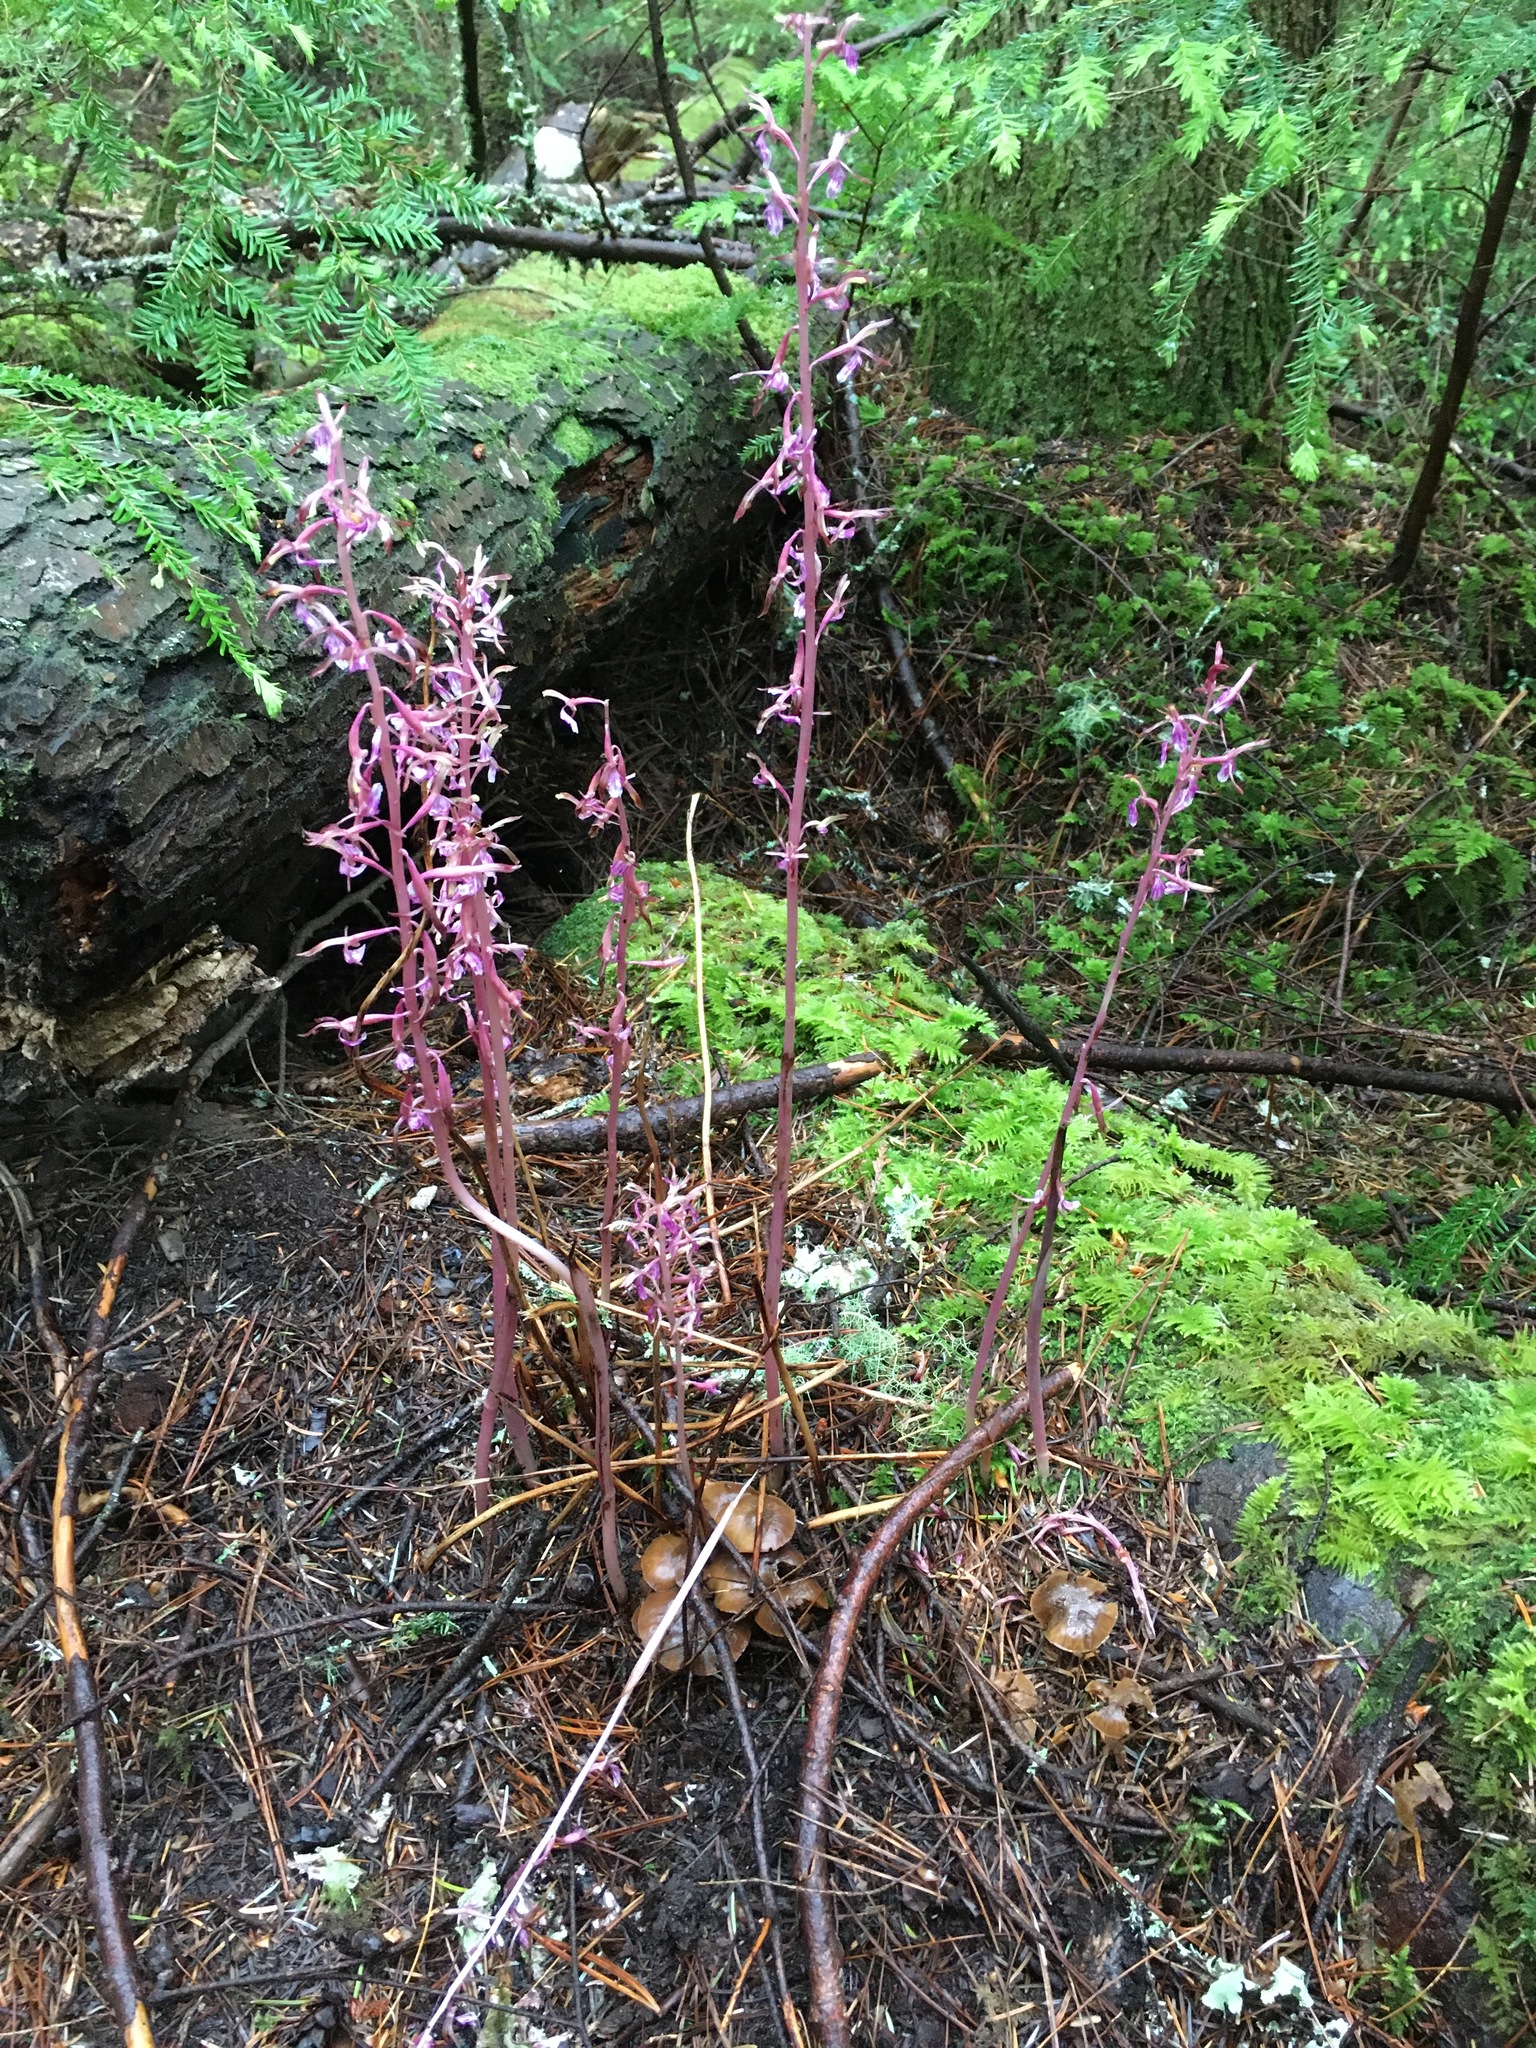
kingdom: Plantae
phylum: Tracheophyta
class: Liliopsida
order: Asparagales
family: Orchidaceae
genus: Corallorhiza
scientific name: Corallorhiza mertensiana
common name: Pacific coralroot
